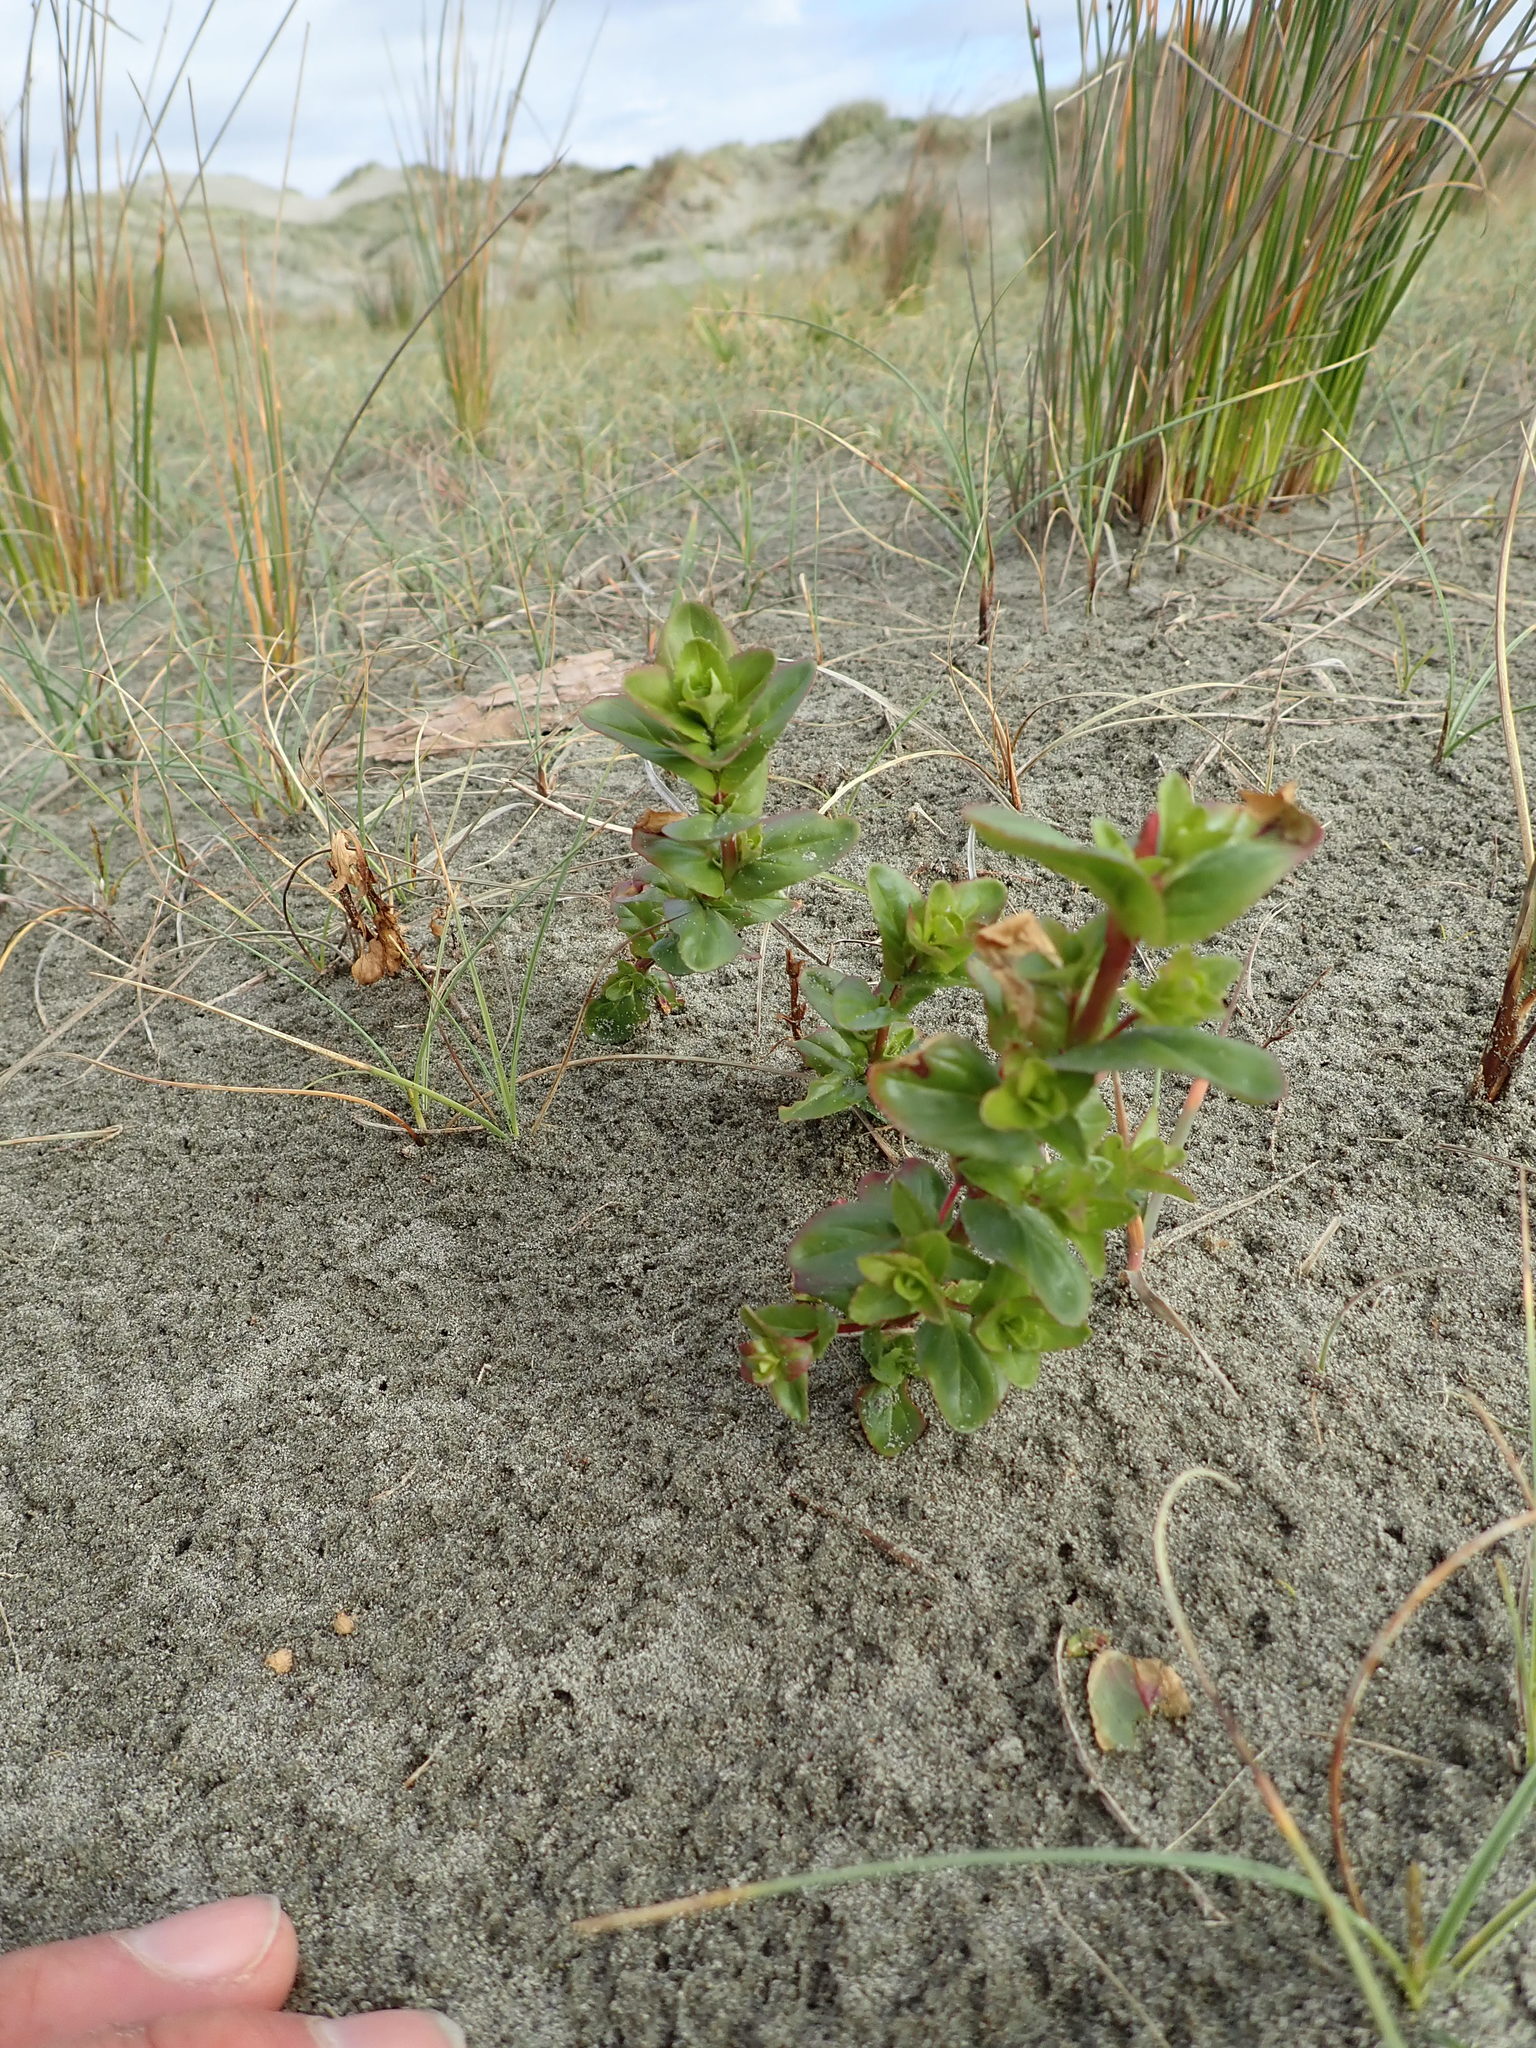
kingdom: Plantae
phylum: Tracheophyta
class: Magnoliopsida
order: Myrtales
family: Onagraceae
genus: Epilobium
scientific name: Epilobium billardiereanum
